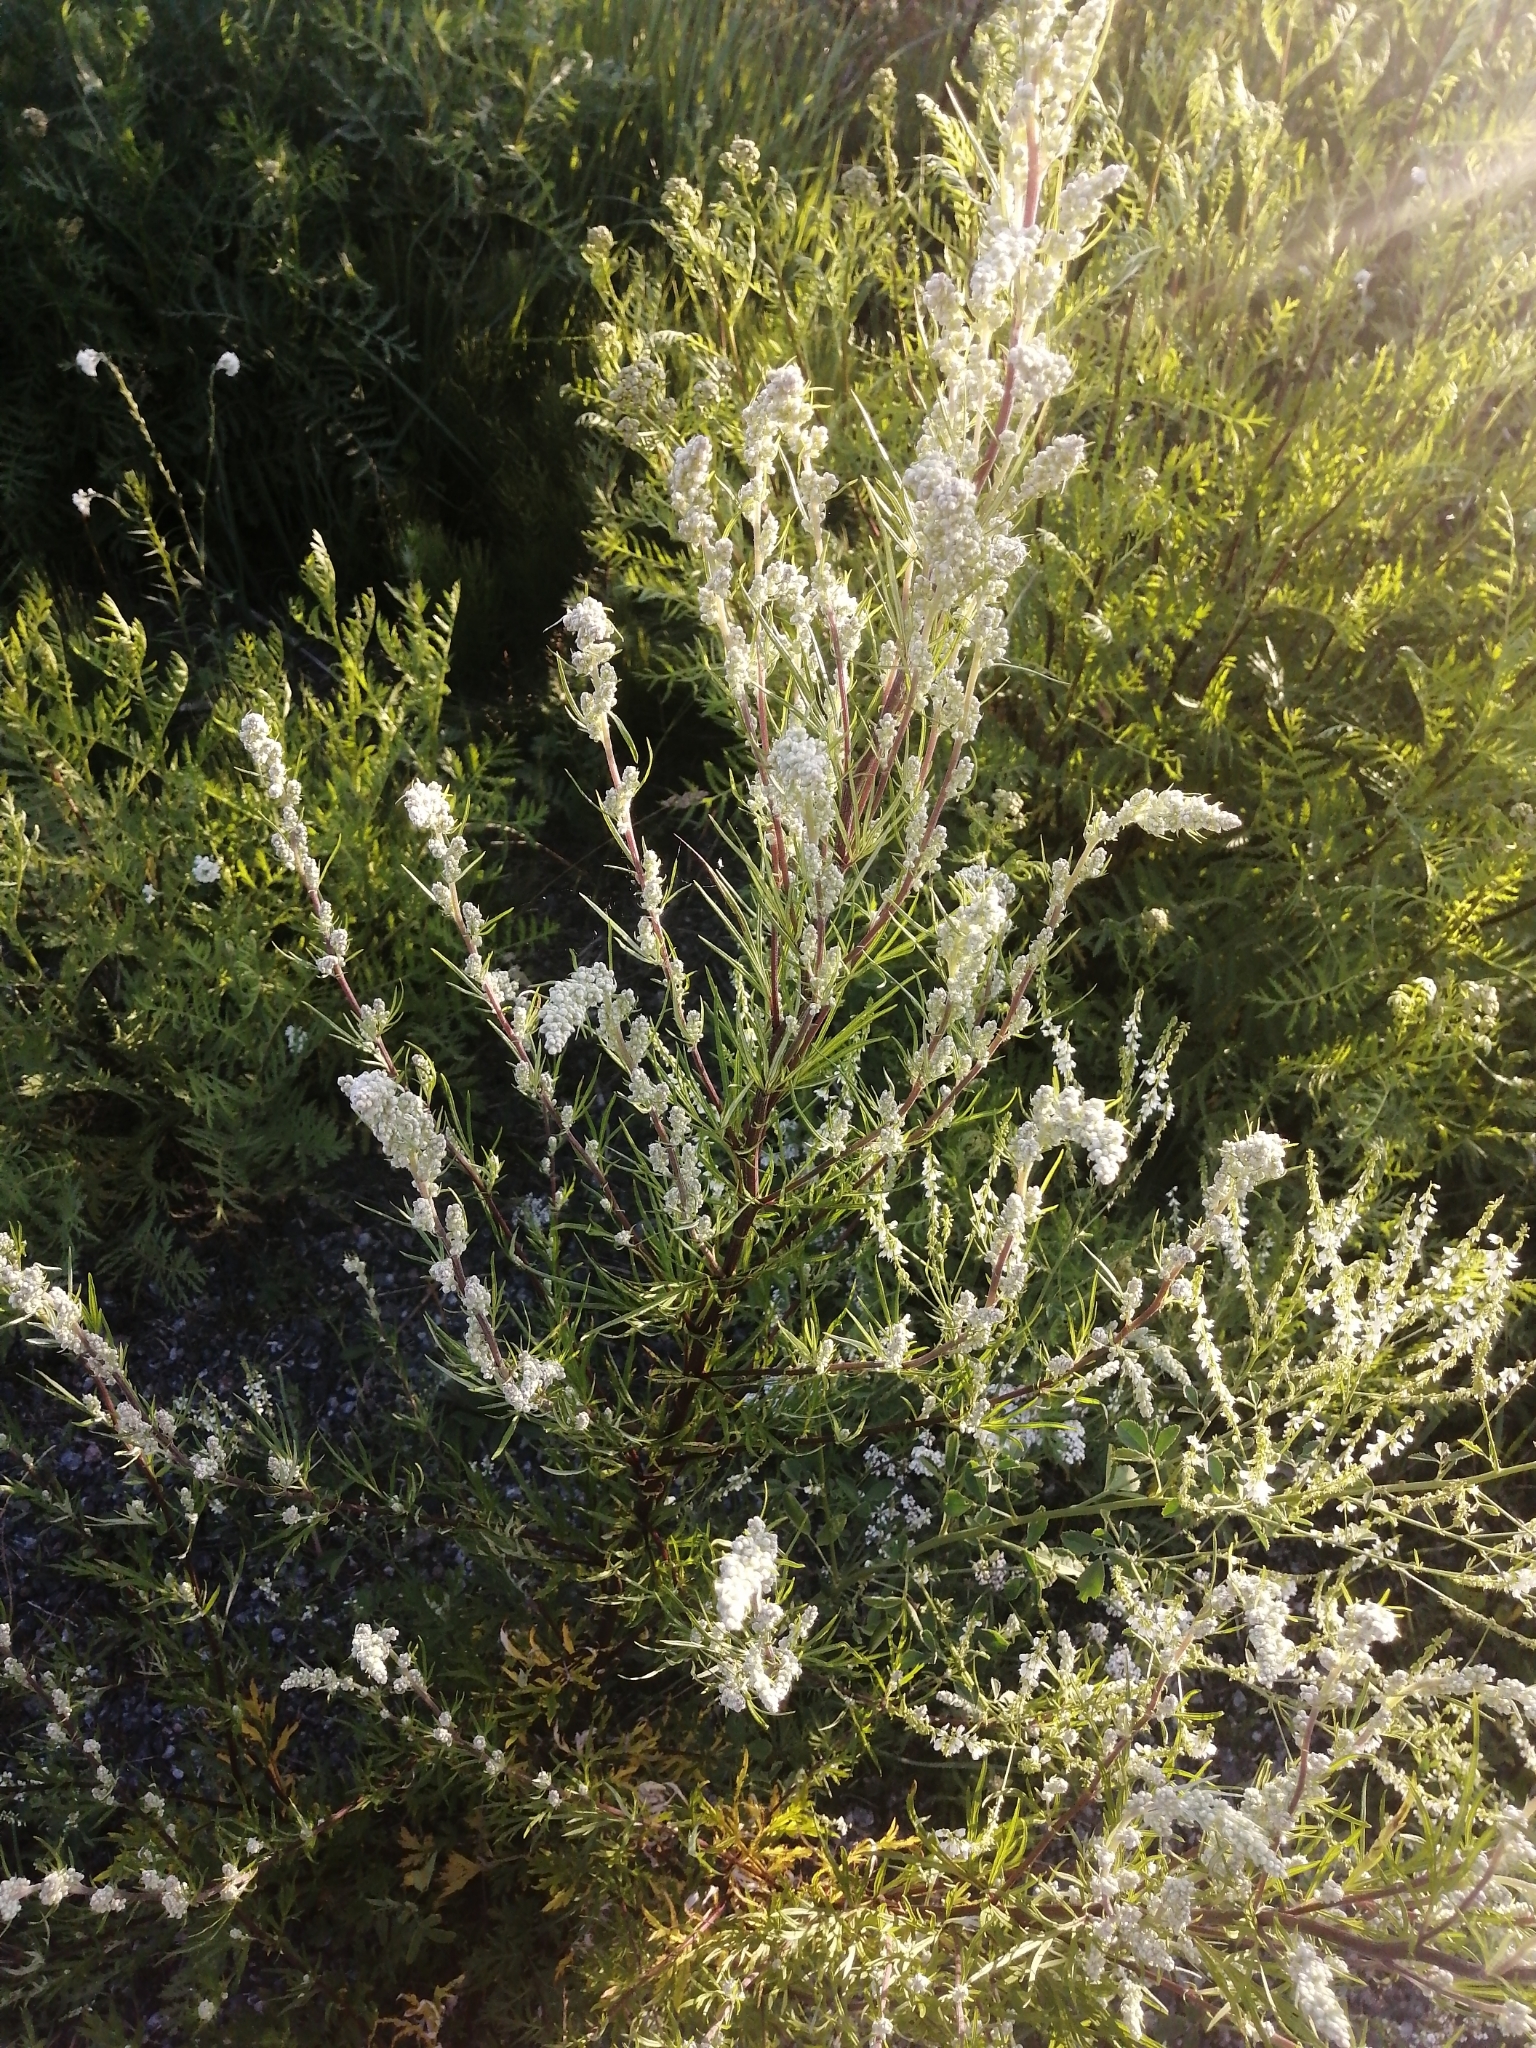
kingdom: Plantae
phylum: Tracheophyta
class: Magnoliopsida
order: Asterales
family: Asteraceae
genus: Artemisia
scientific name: Artemisia vulgaris
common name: Mugwort
